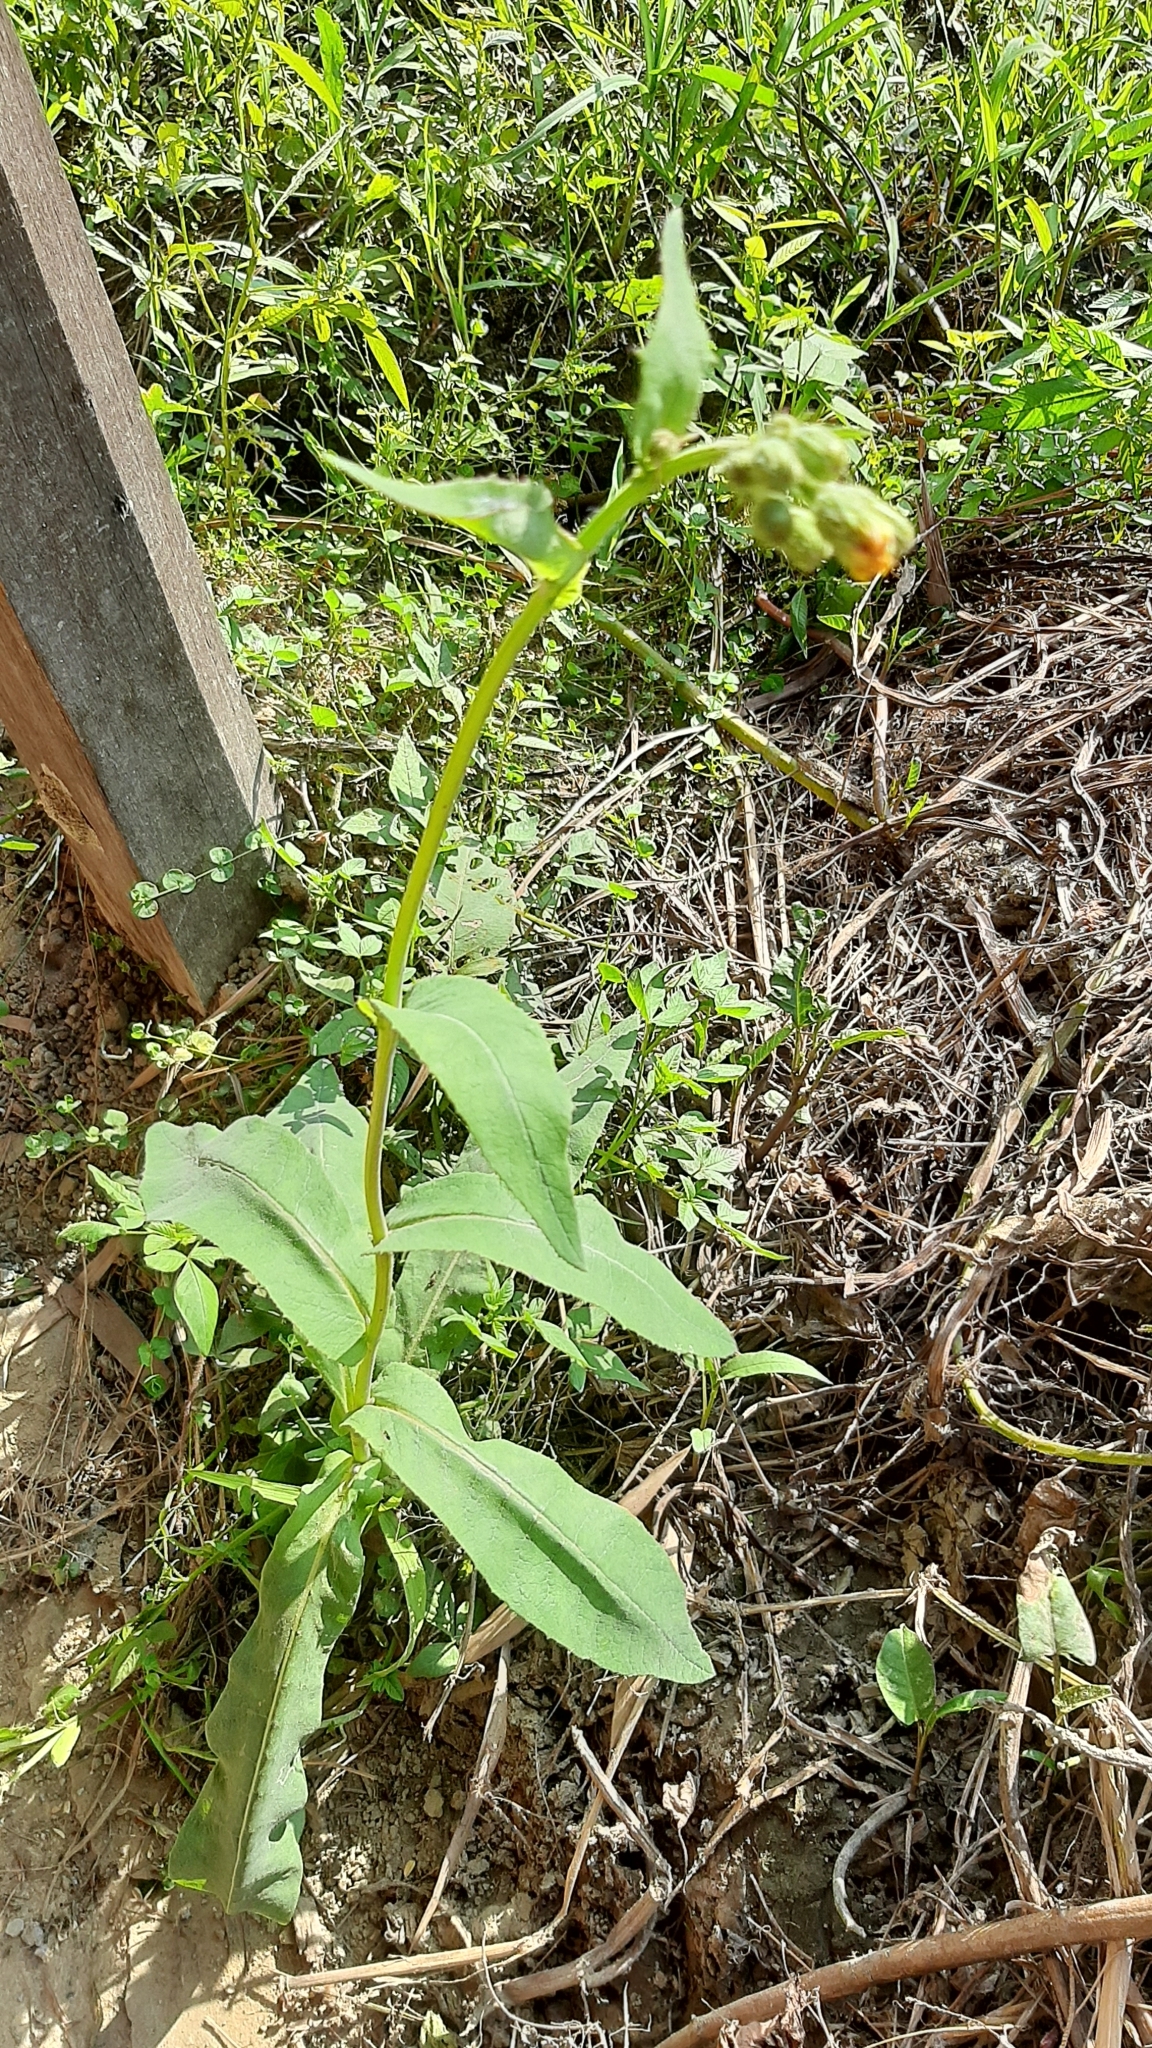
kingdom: Plantae
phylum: Tracheophyta
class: Magnoliopsida
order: Asterales
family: Asteraceae
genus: Sonchus
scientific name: Sonchus arvensis
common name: Perennial sow-thistle
